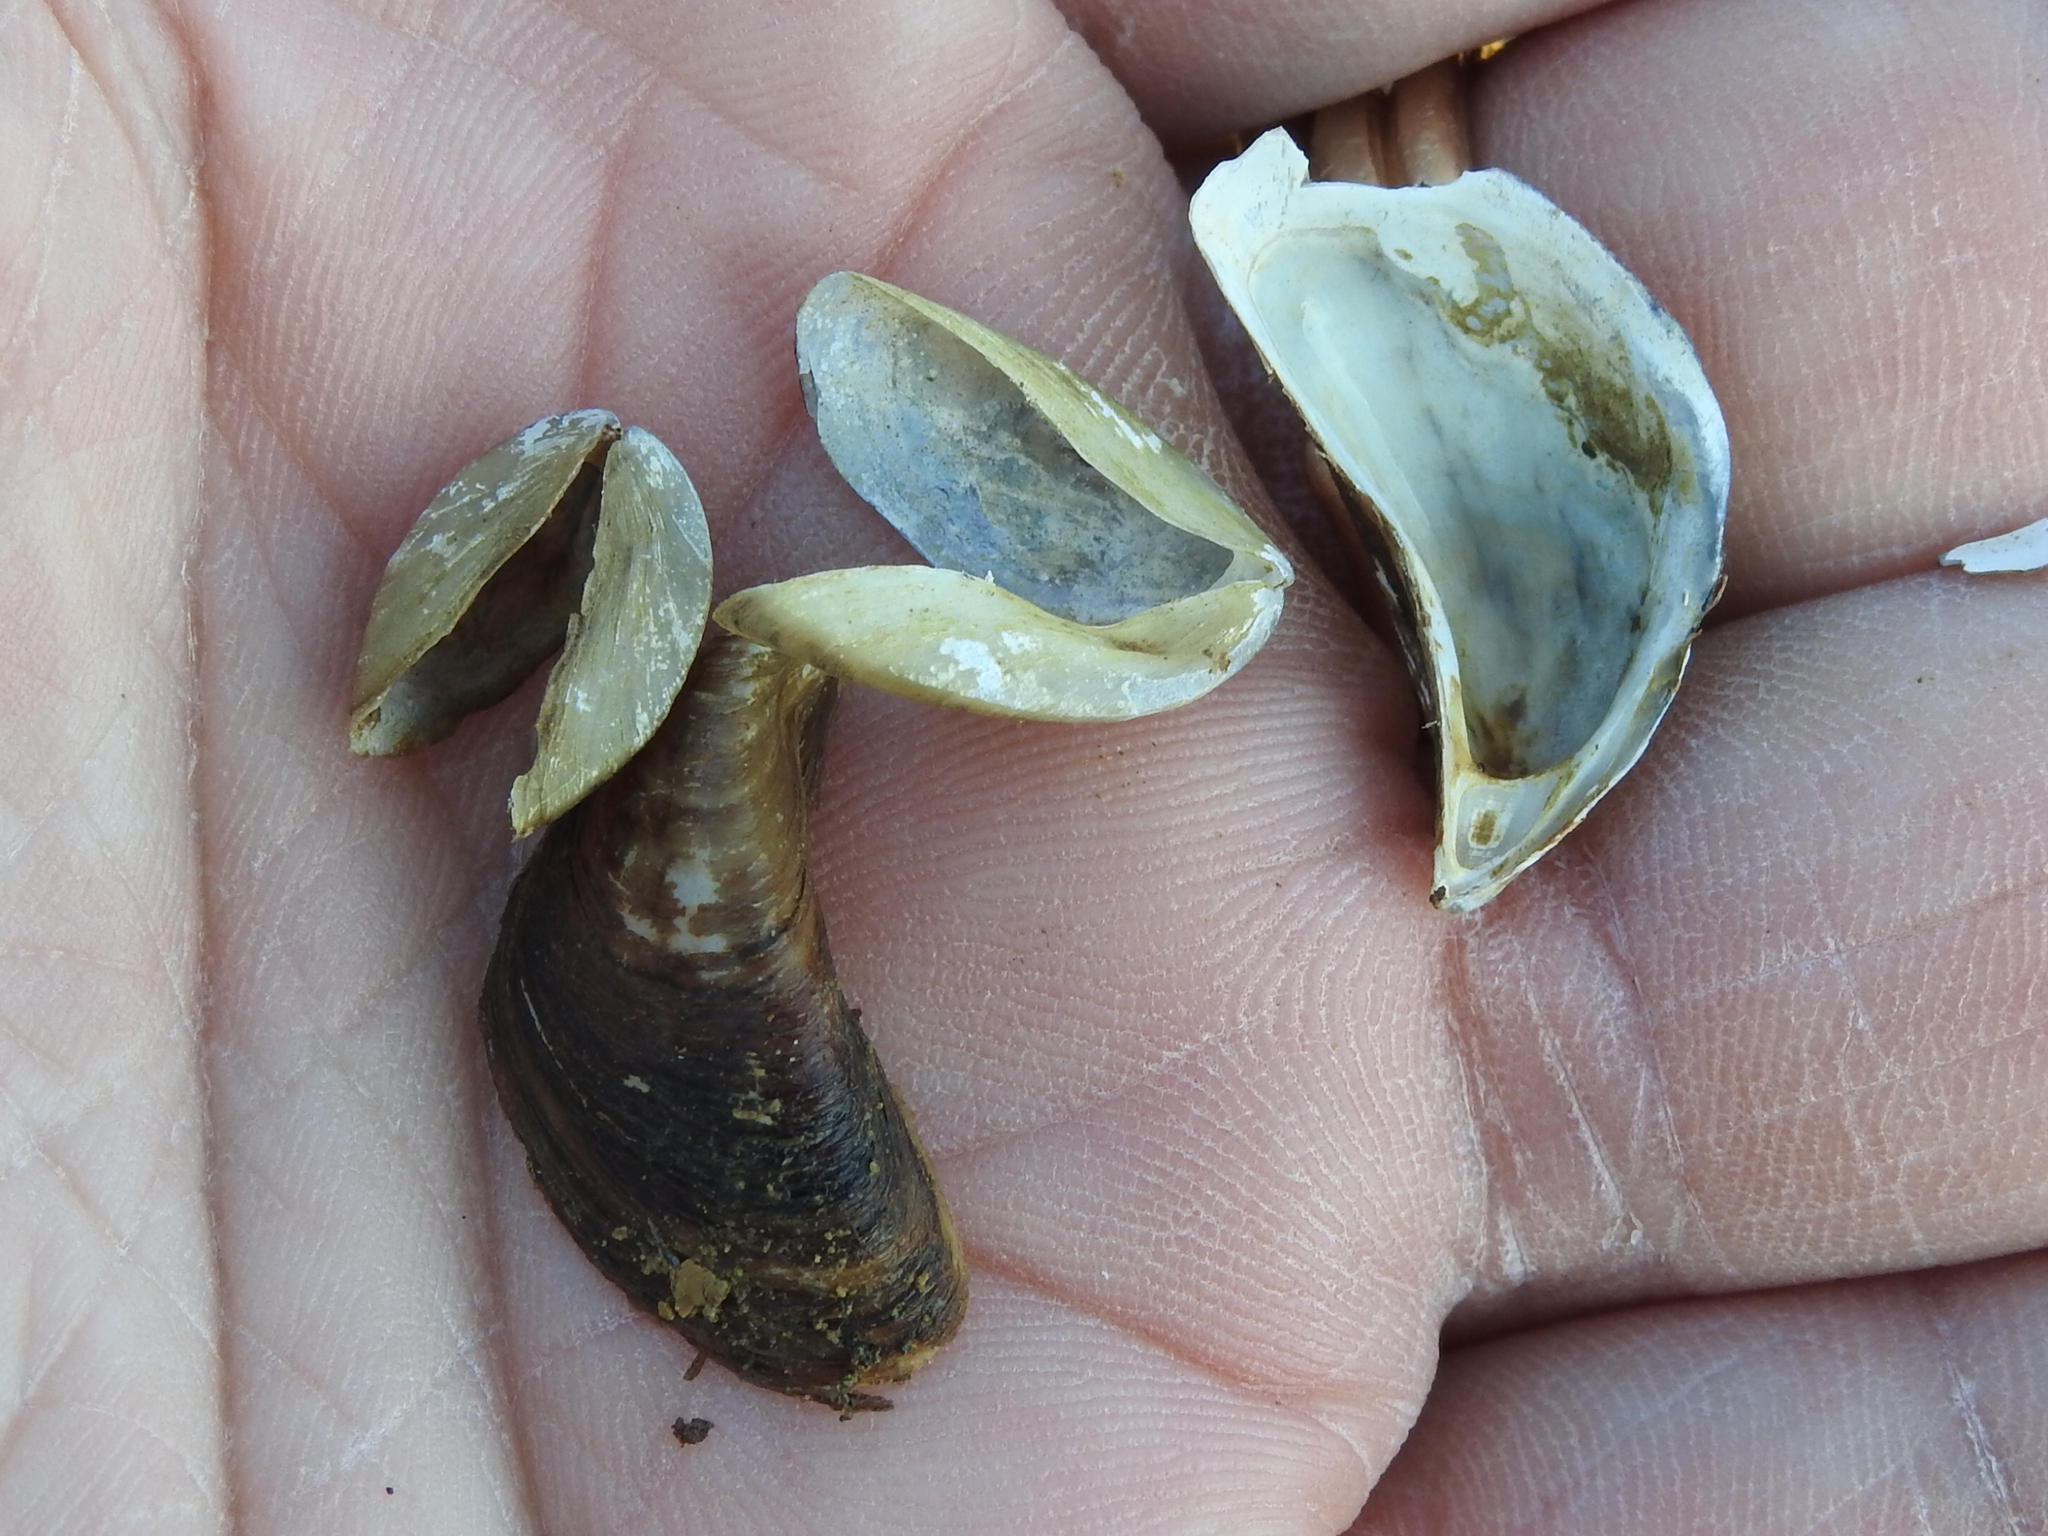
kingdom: Animalia
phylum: Mollusca
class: Bivalvia
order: Myida
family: Dreissenidae
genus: Dreissena
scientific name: Dreissena polymorpha
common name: Zebra mussel
